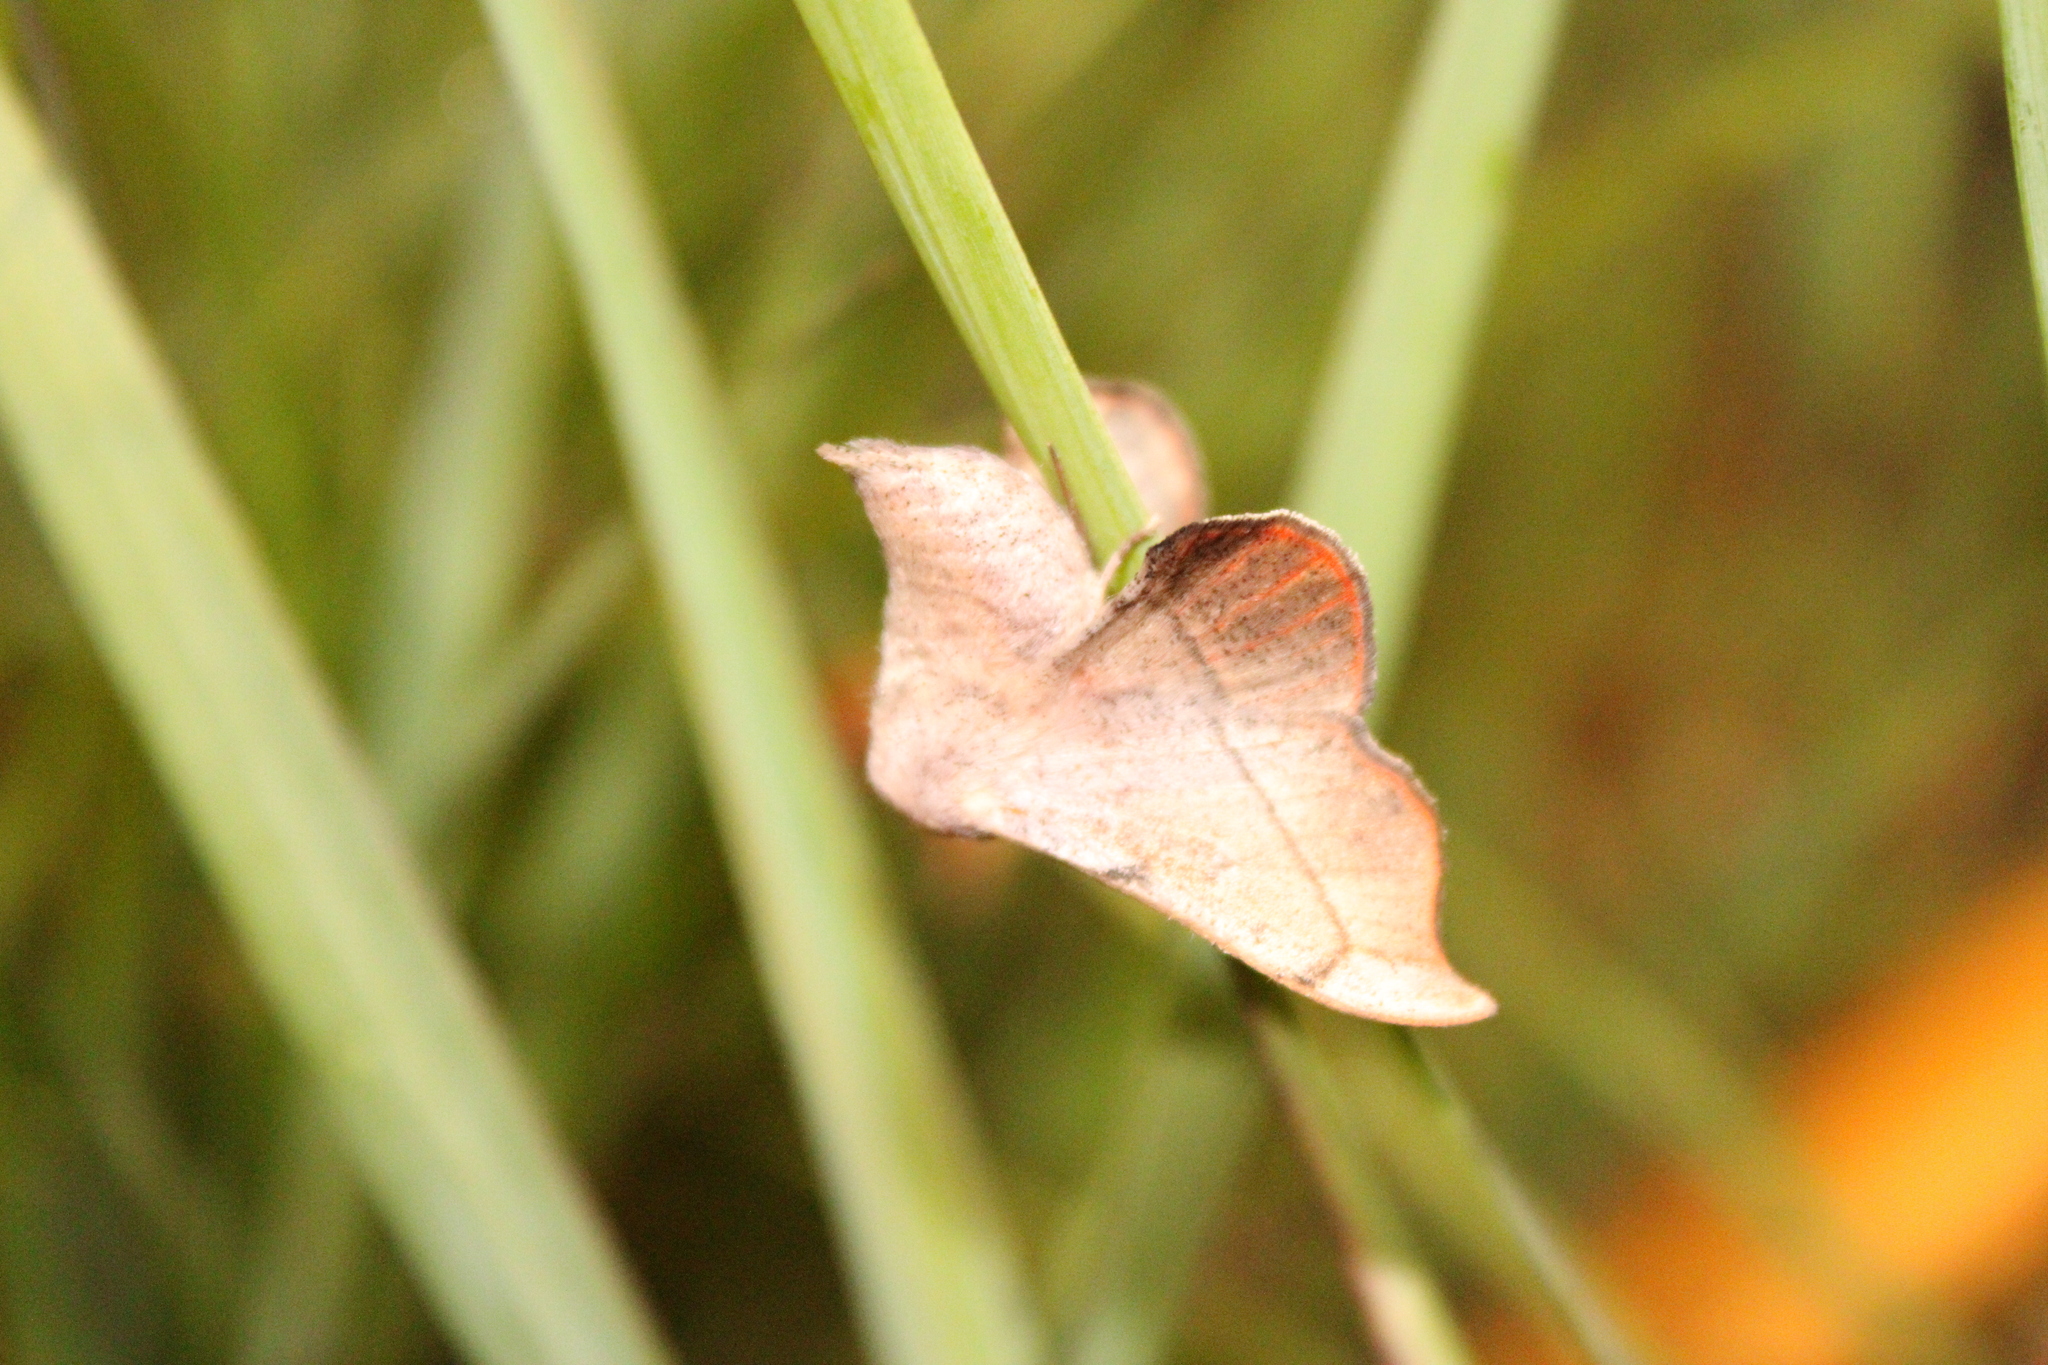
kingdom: Animalia
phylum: Arthropoda
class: Insecta
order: Lepidoptera
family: Mimallonidae
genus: Cicinnus
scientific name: Cicinnus melsheimeri
